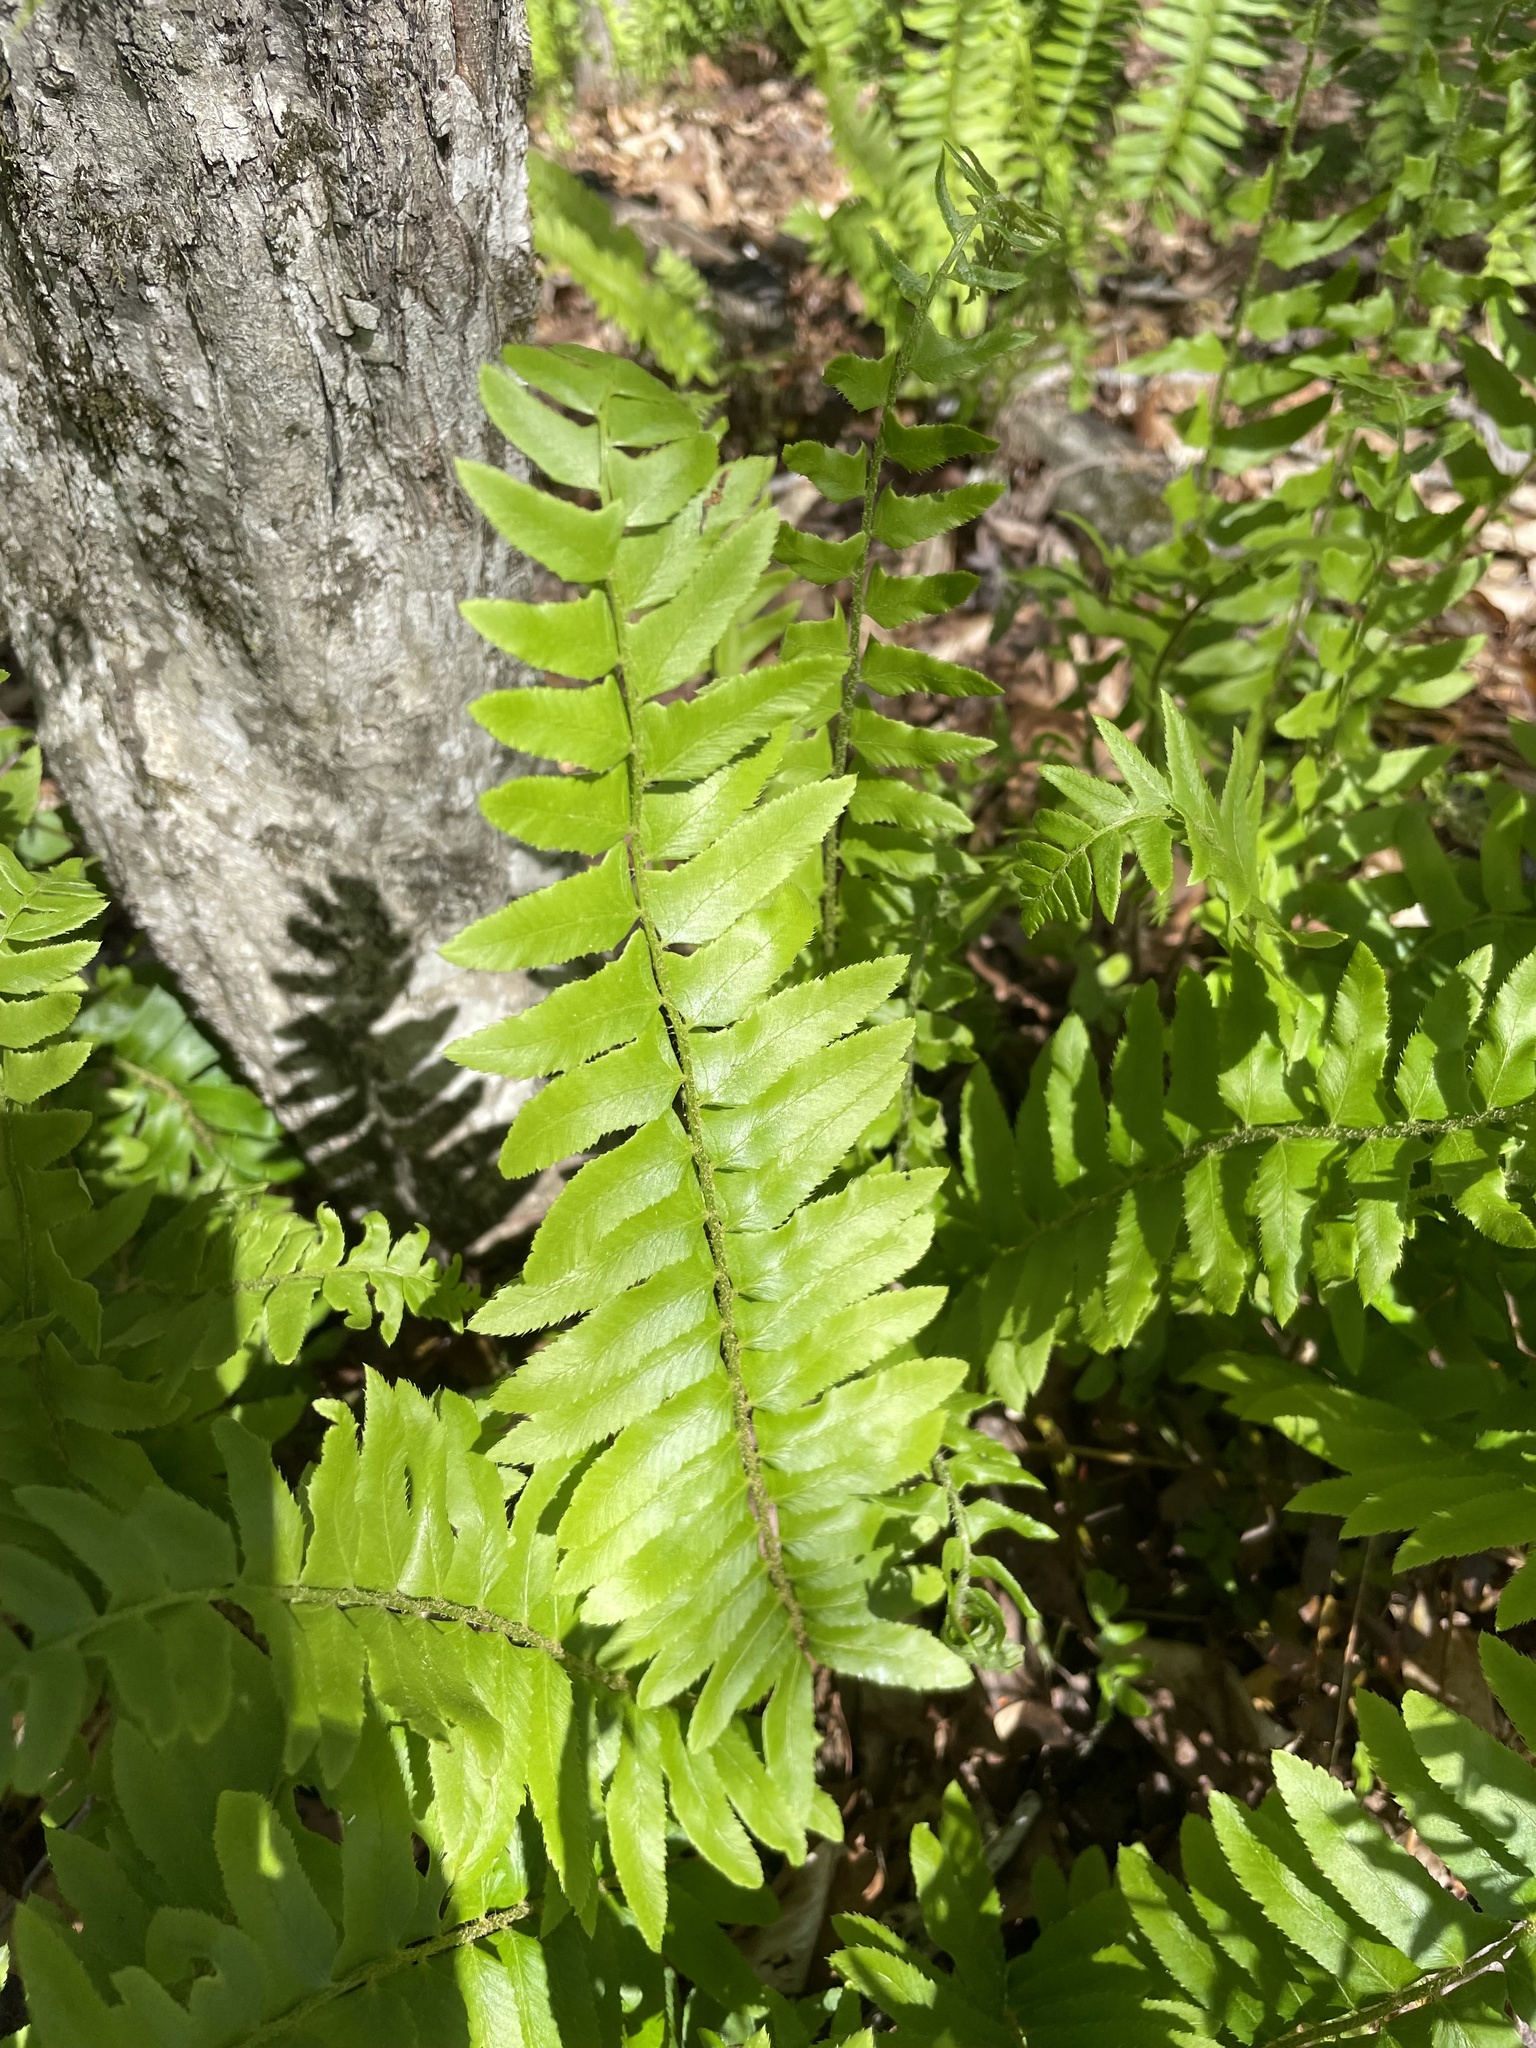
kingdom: Plantae
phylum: Tracheophyta
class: Polypodiopsida
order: Polypodiales
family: Dryopteridaceae
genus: Polystichum
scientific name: Polystichum acrostichoides
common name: Christmas fern
